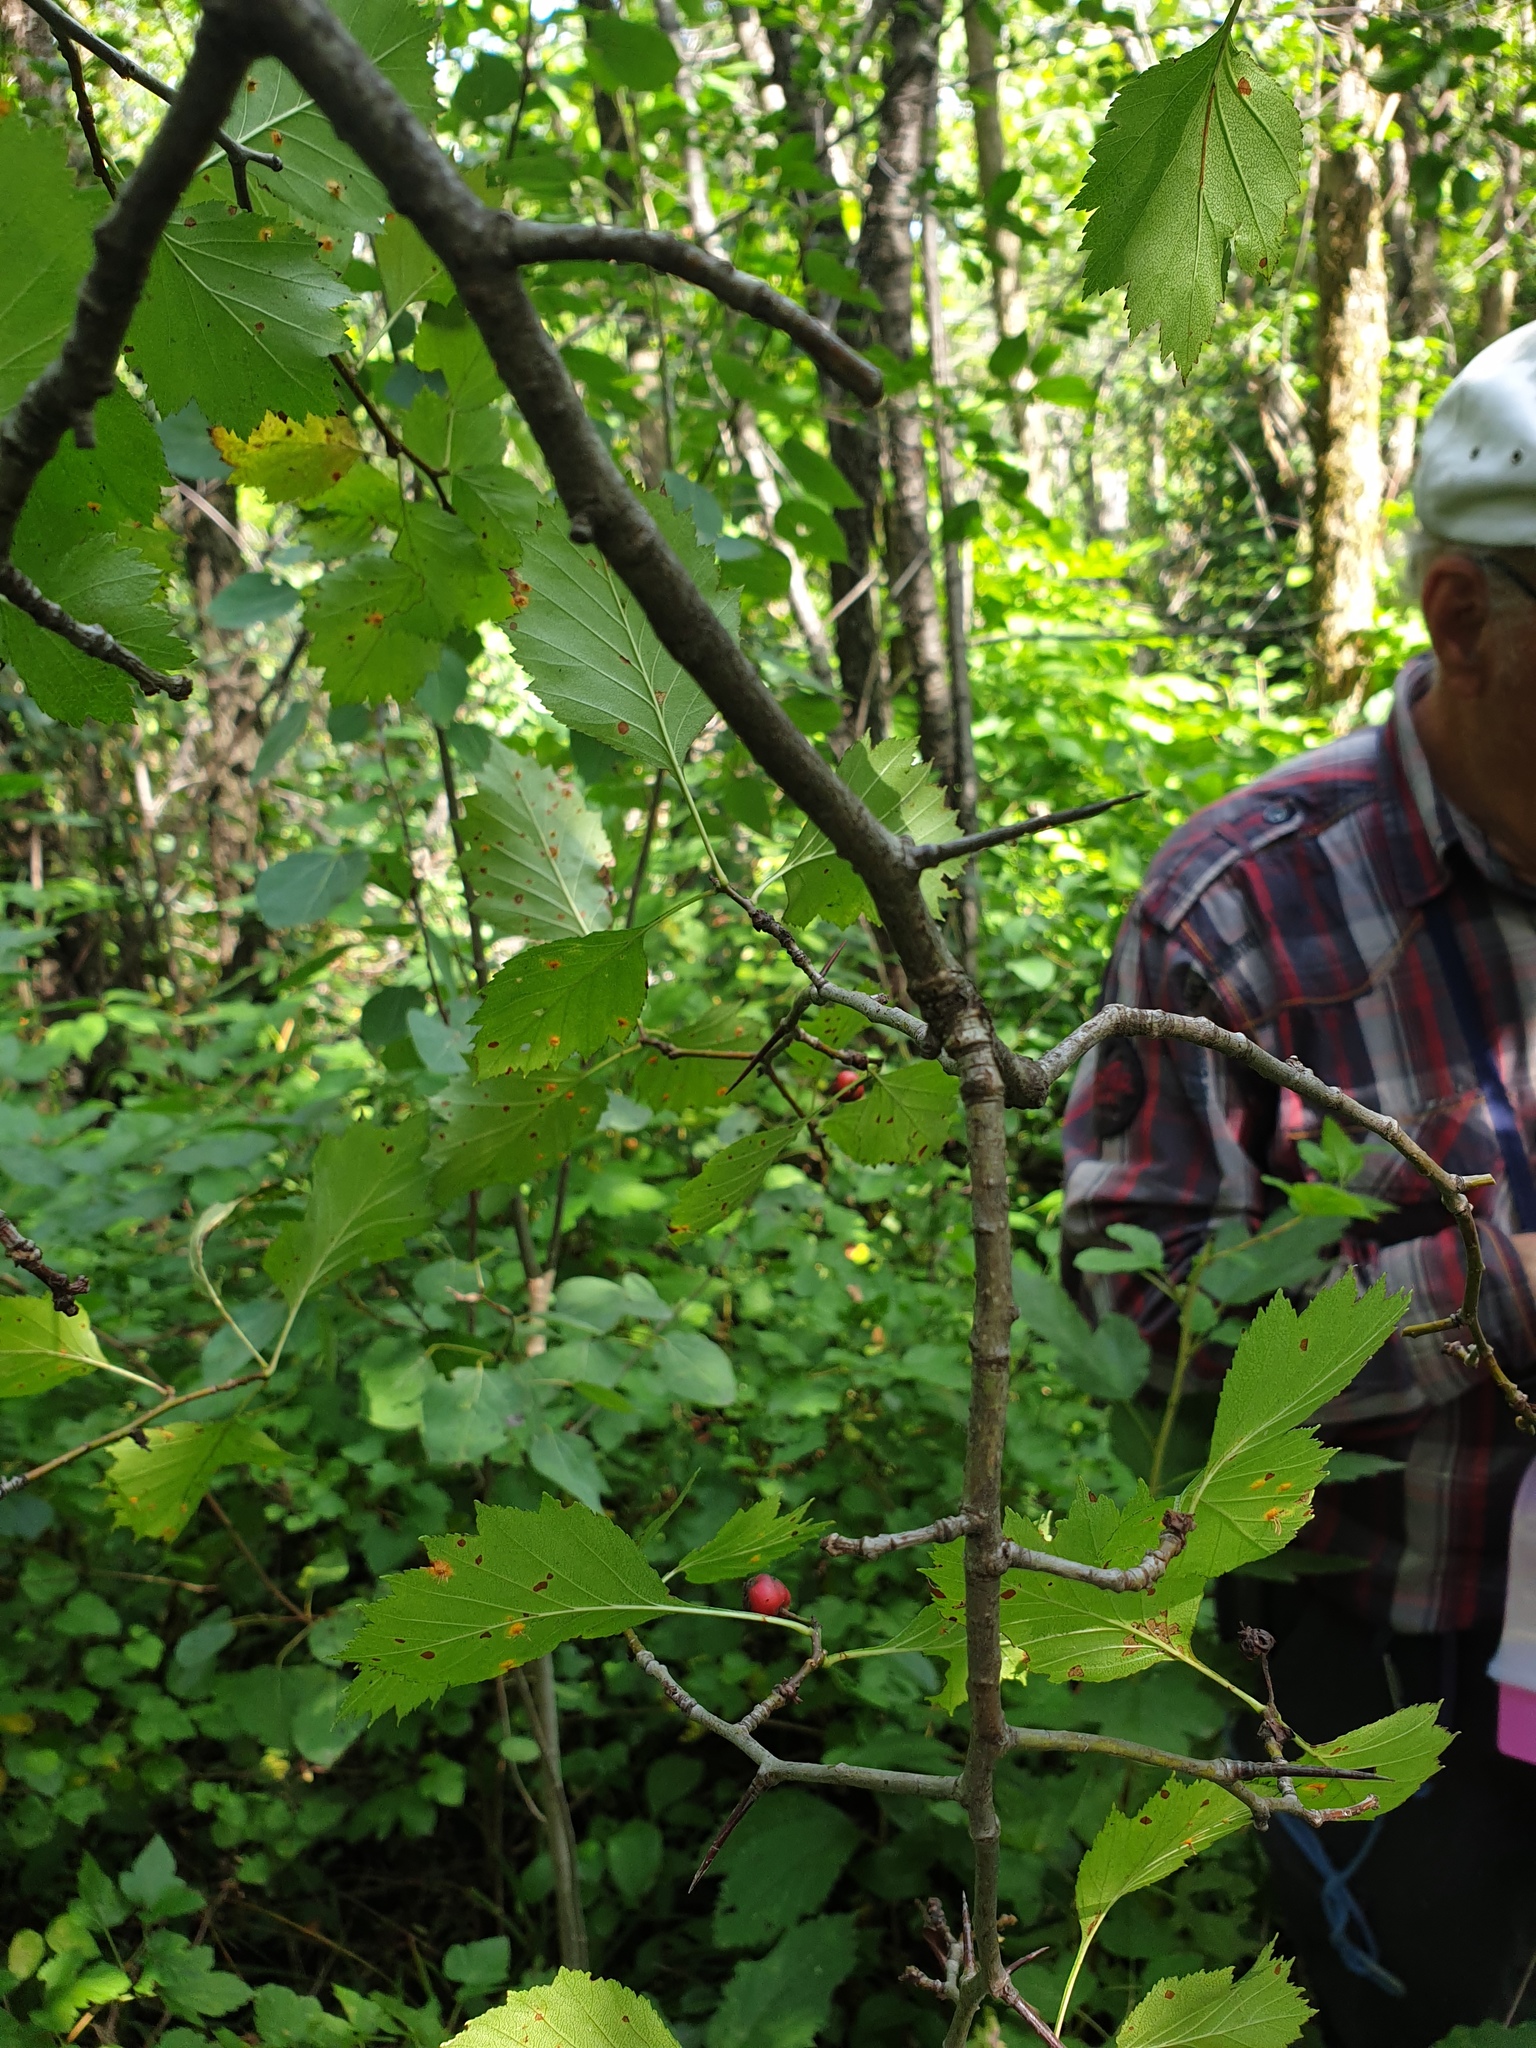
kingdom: Plantae
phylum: Tracheophyta
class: Magnoliopsida
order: Rosales
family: Rosaceae
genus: Crataegus
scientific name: Crataegus flabellata
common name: Bosc's hawthorn
